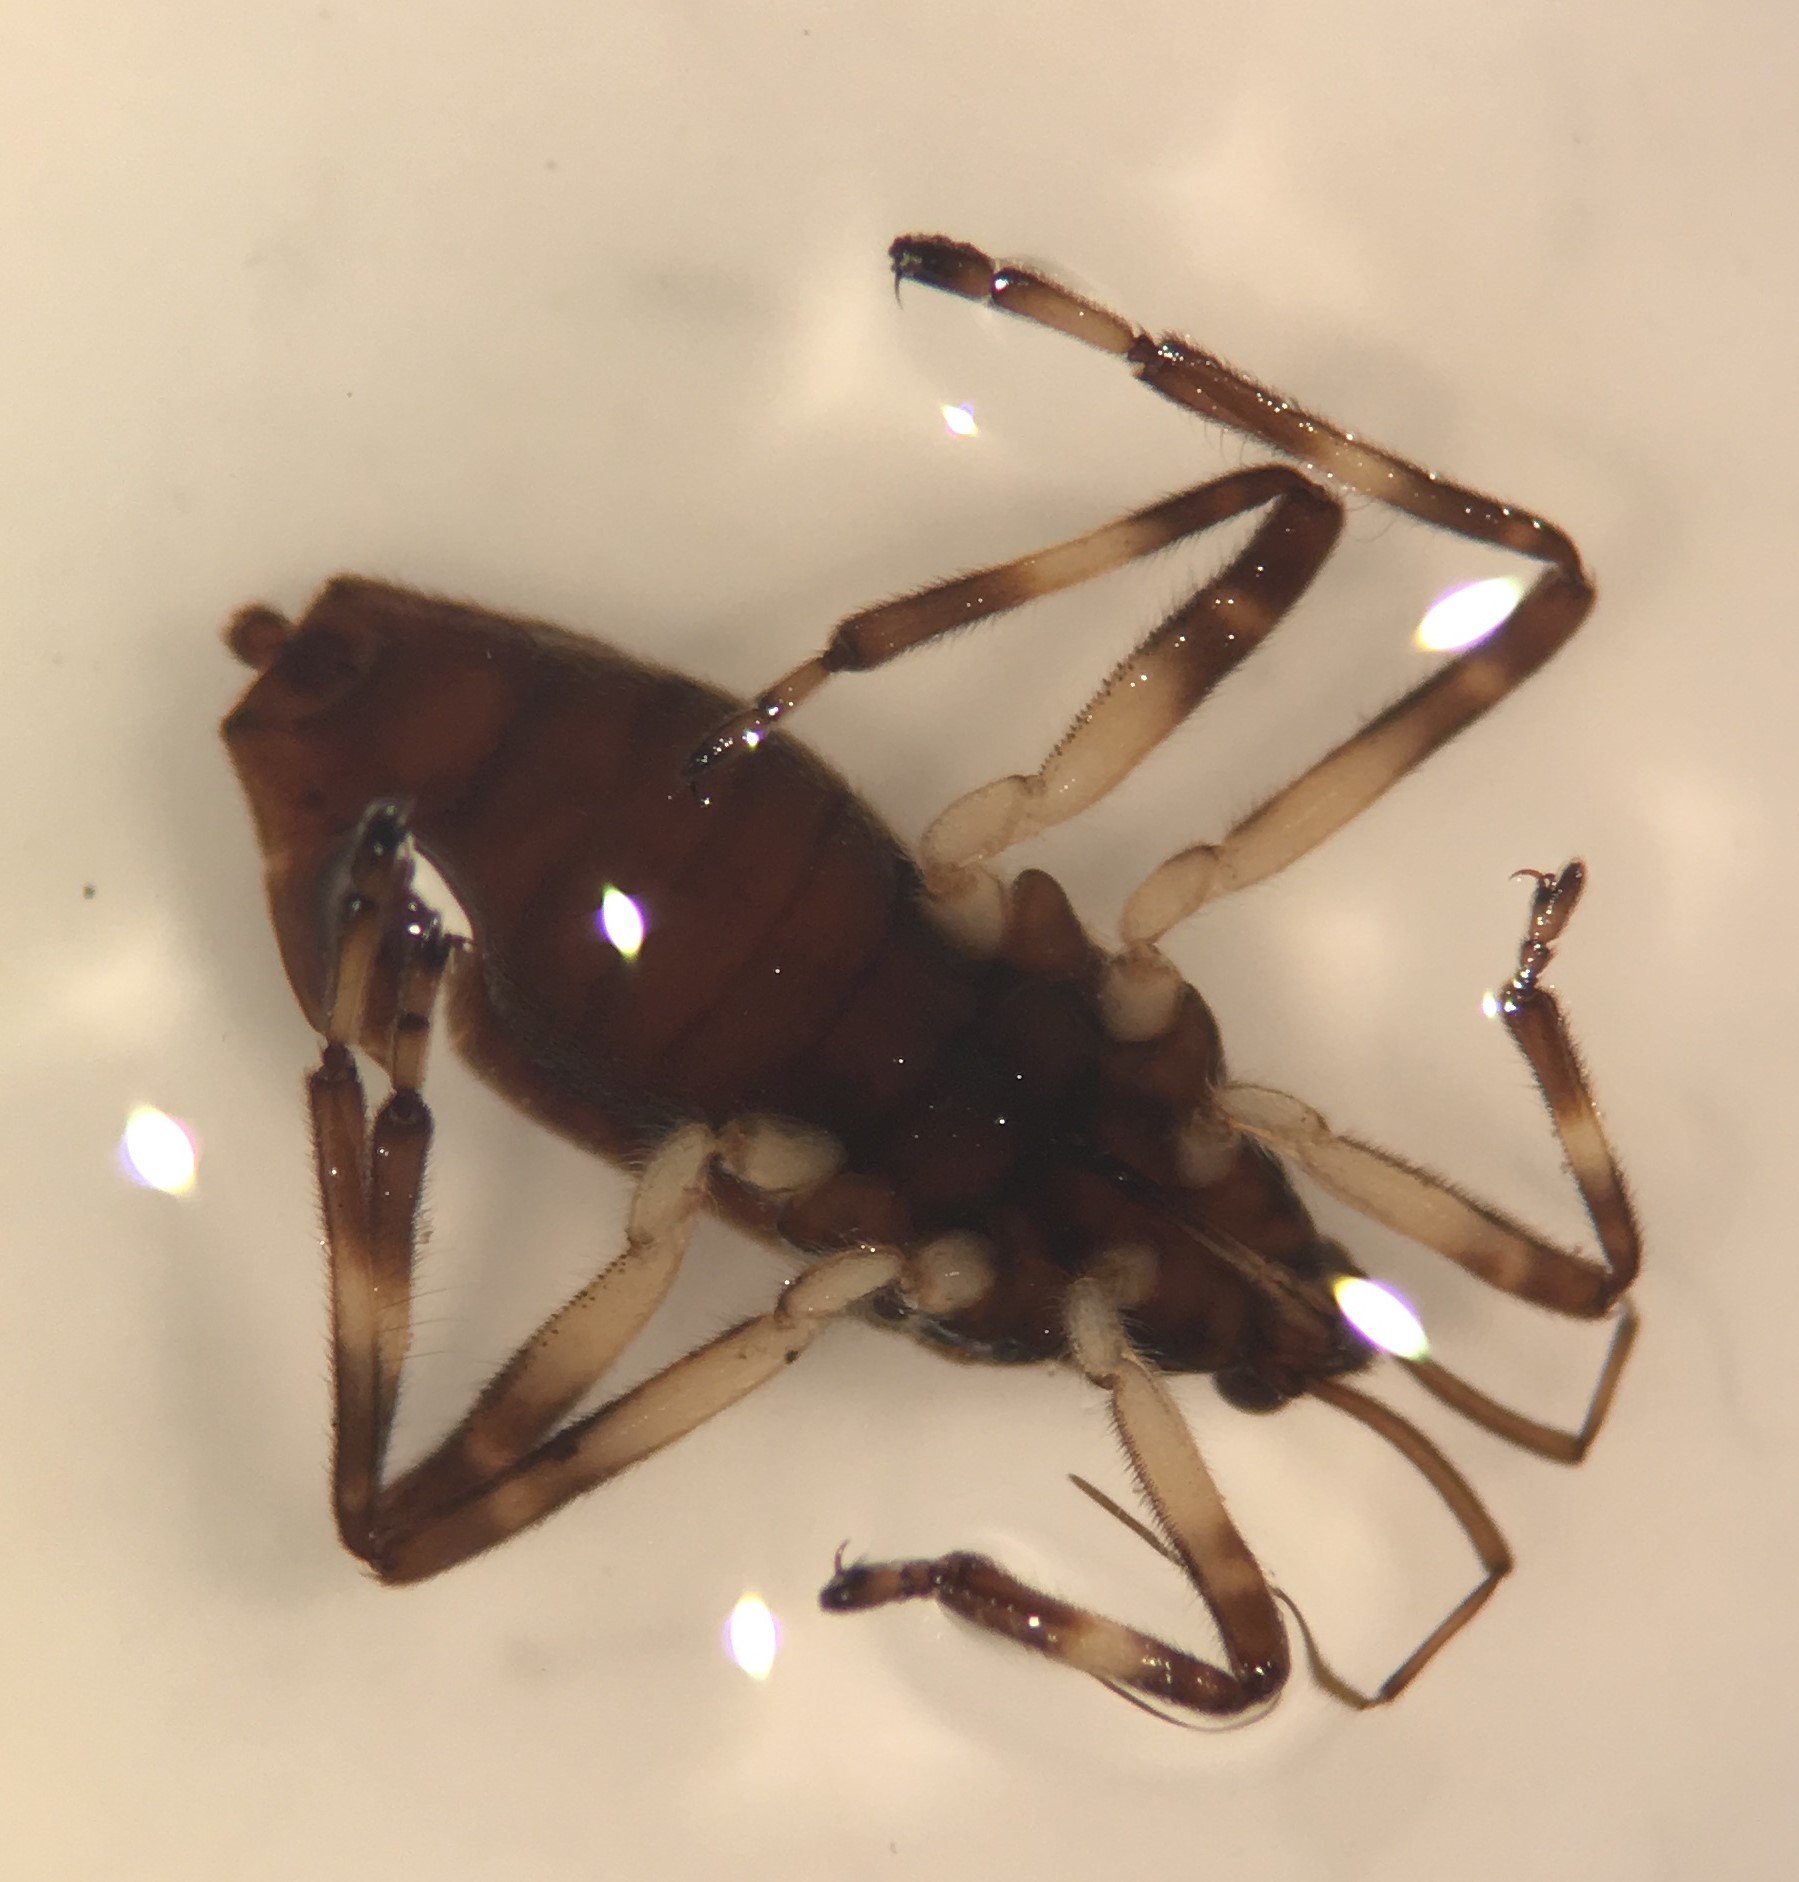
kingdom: Animalia
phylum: Arthropoda
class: Insecta
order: Hemiptera
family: Veliidae
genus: Platyvelia
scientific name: Platyvelia brachialis
